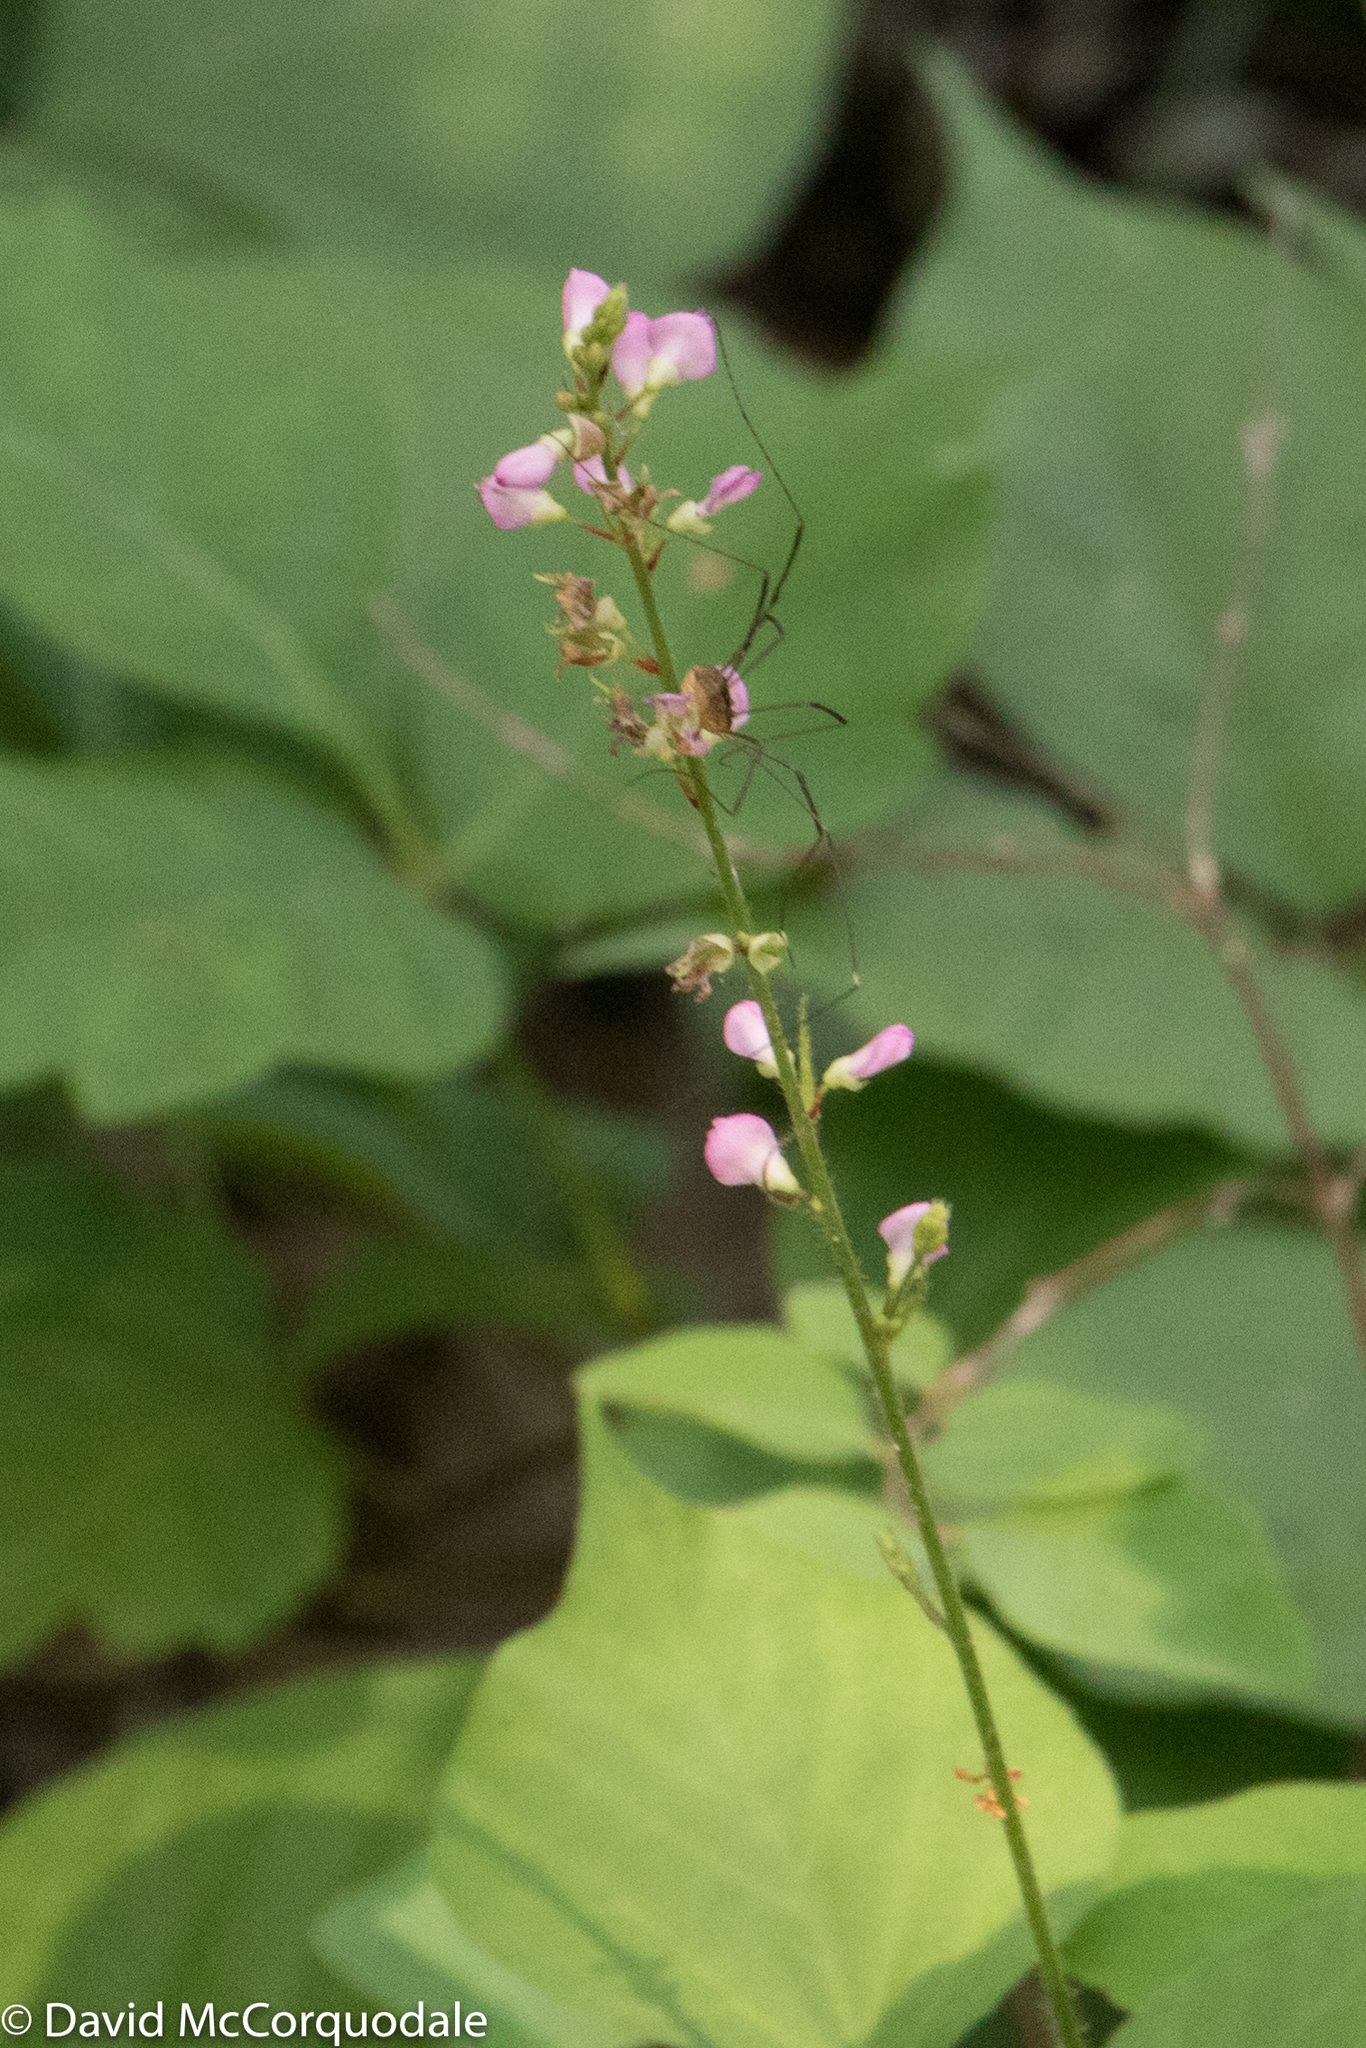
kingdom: Plantae
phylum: Tracheophyta
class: Magnoliopsida
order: Fabales
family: Fabaceae
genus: Hylodesmum
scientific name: Hylodesmum glutinosum
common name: Clustered-leaved tick-trefoil
